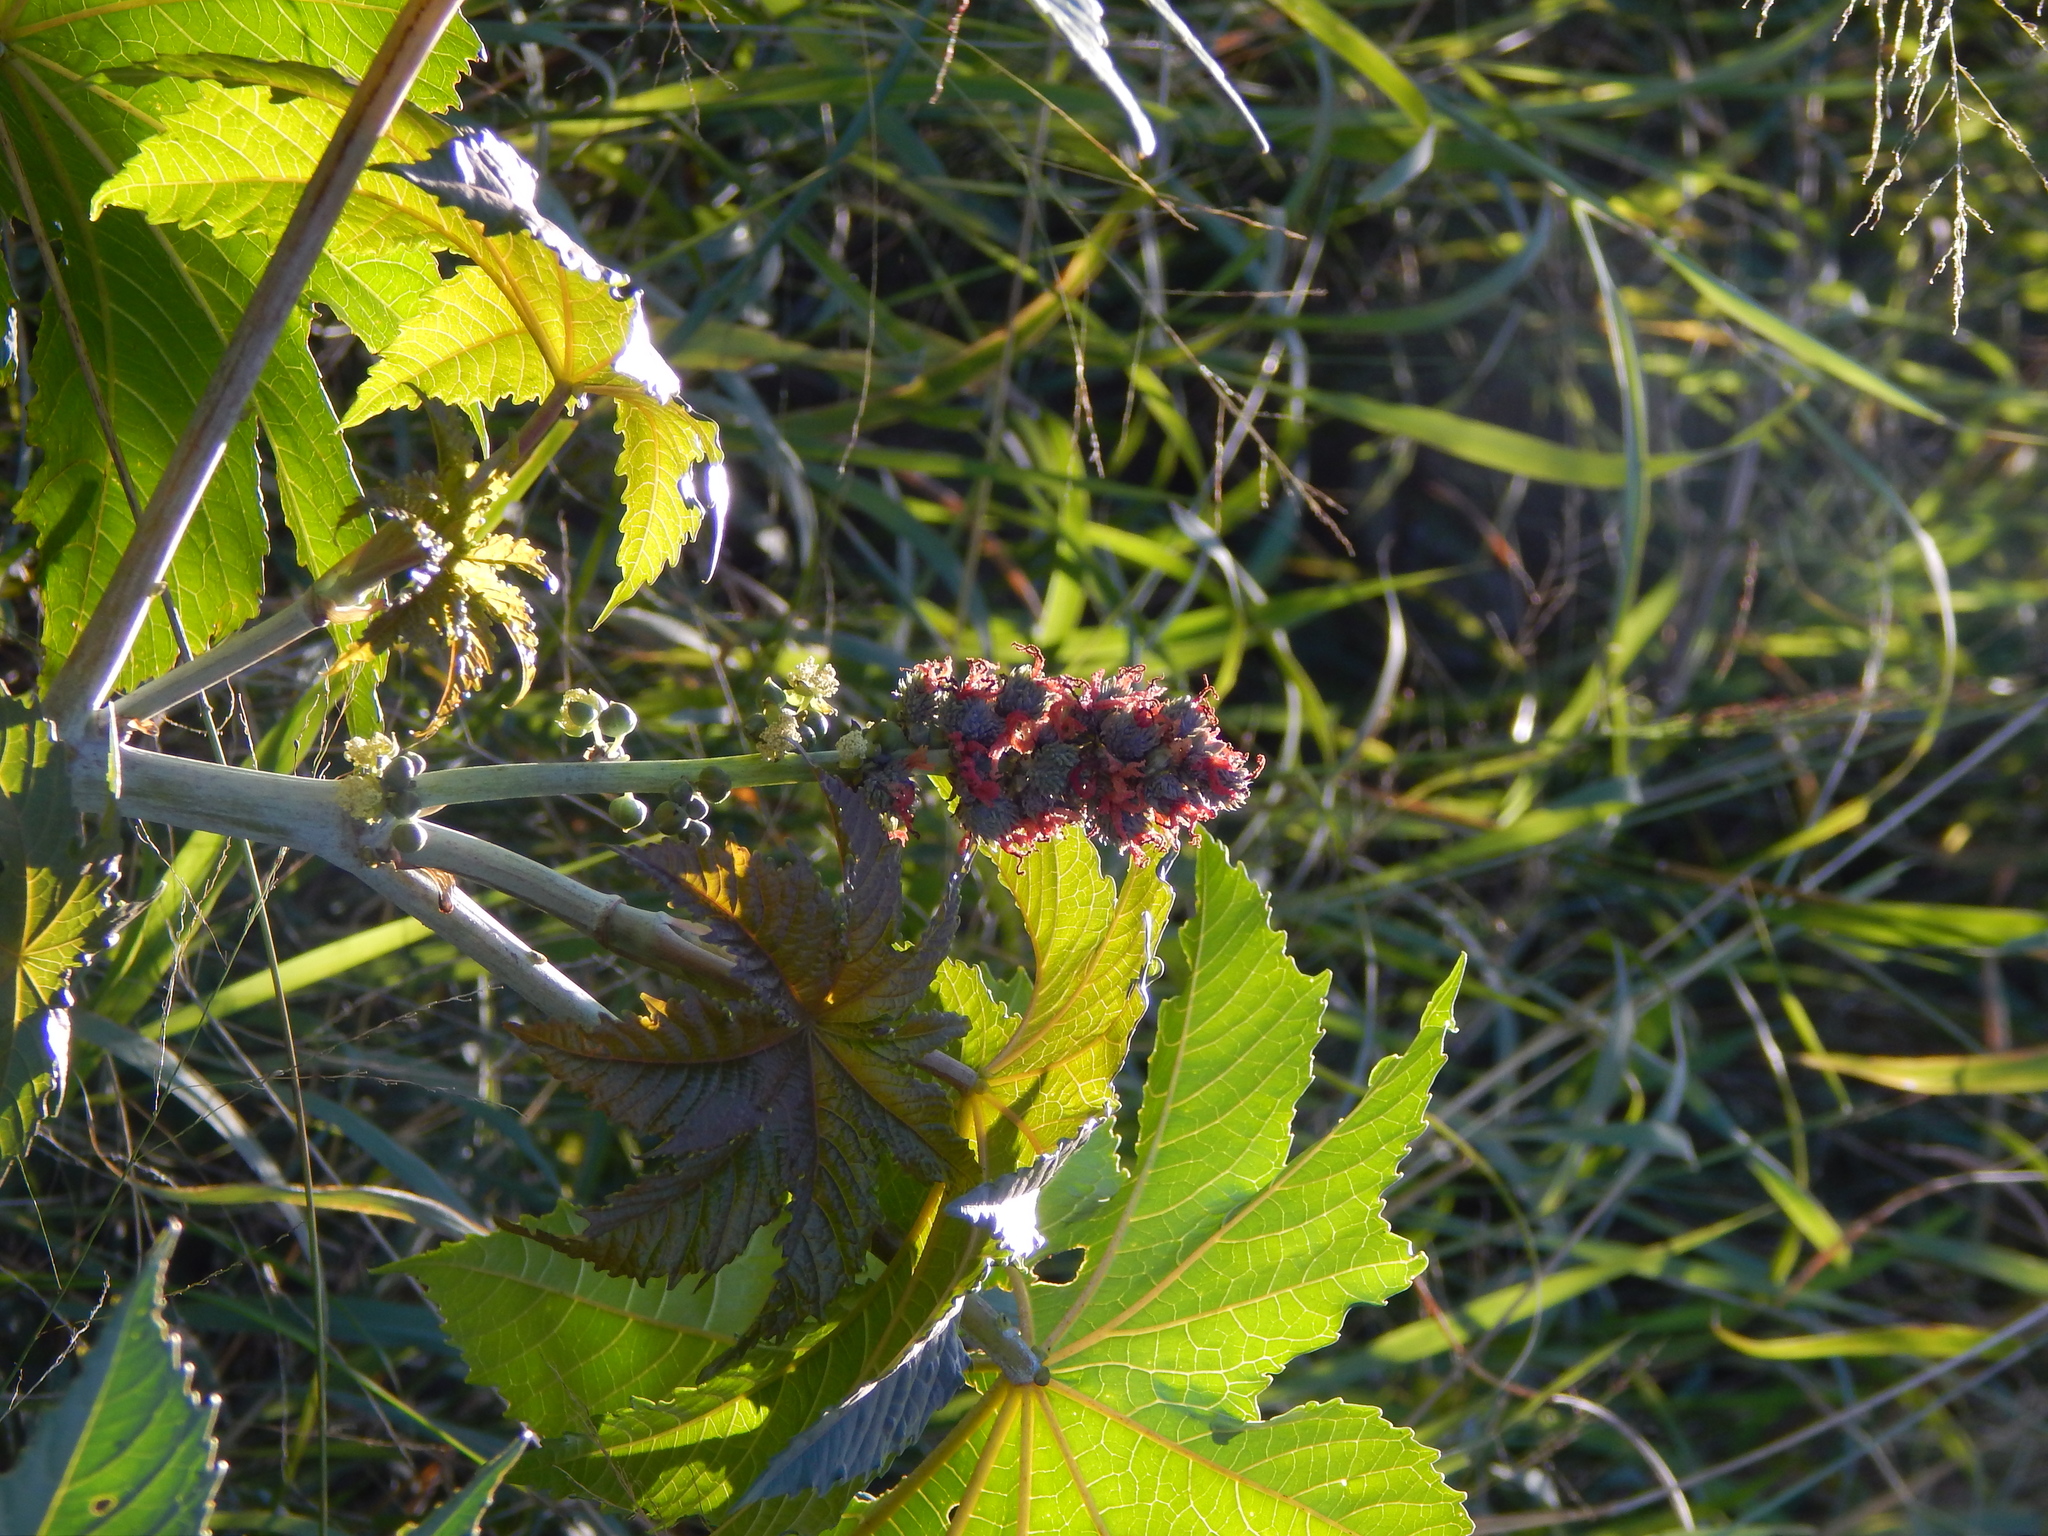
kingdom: Plantae
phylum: Tracheophyta
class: Magnoliopsida
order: Malpighiales
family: Euphorbiaceae
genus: Ricinus
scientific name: Ricinus communis
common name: Castor-oil-plant
